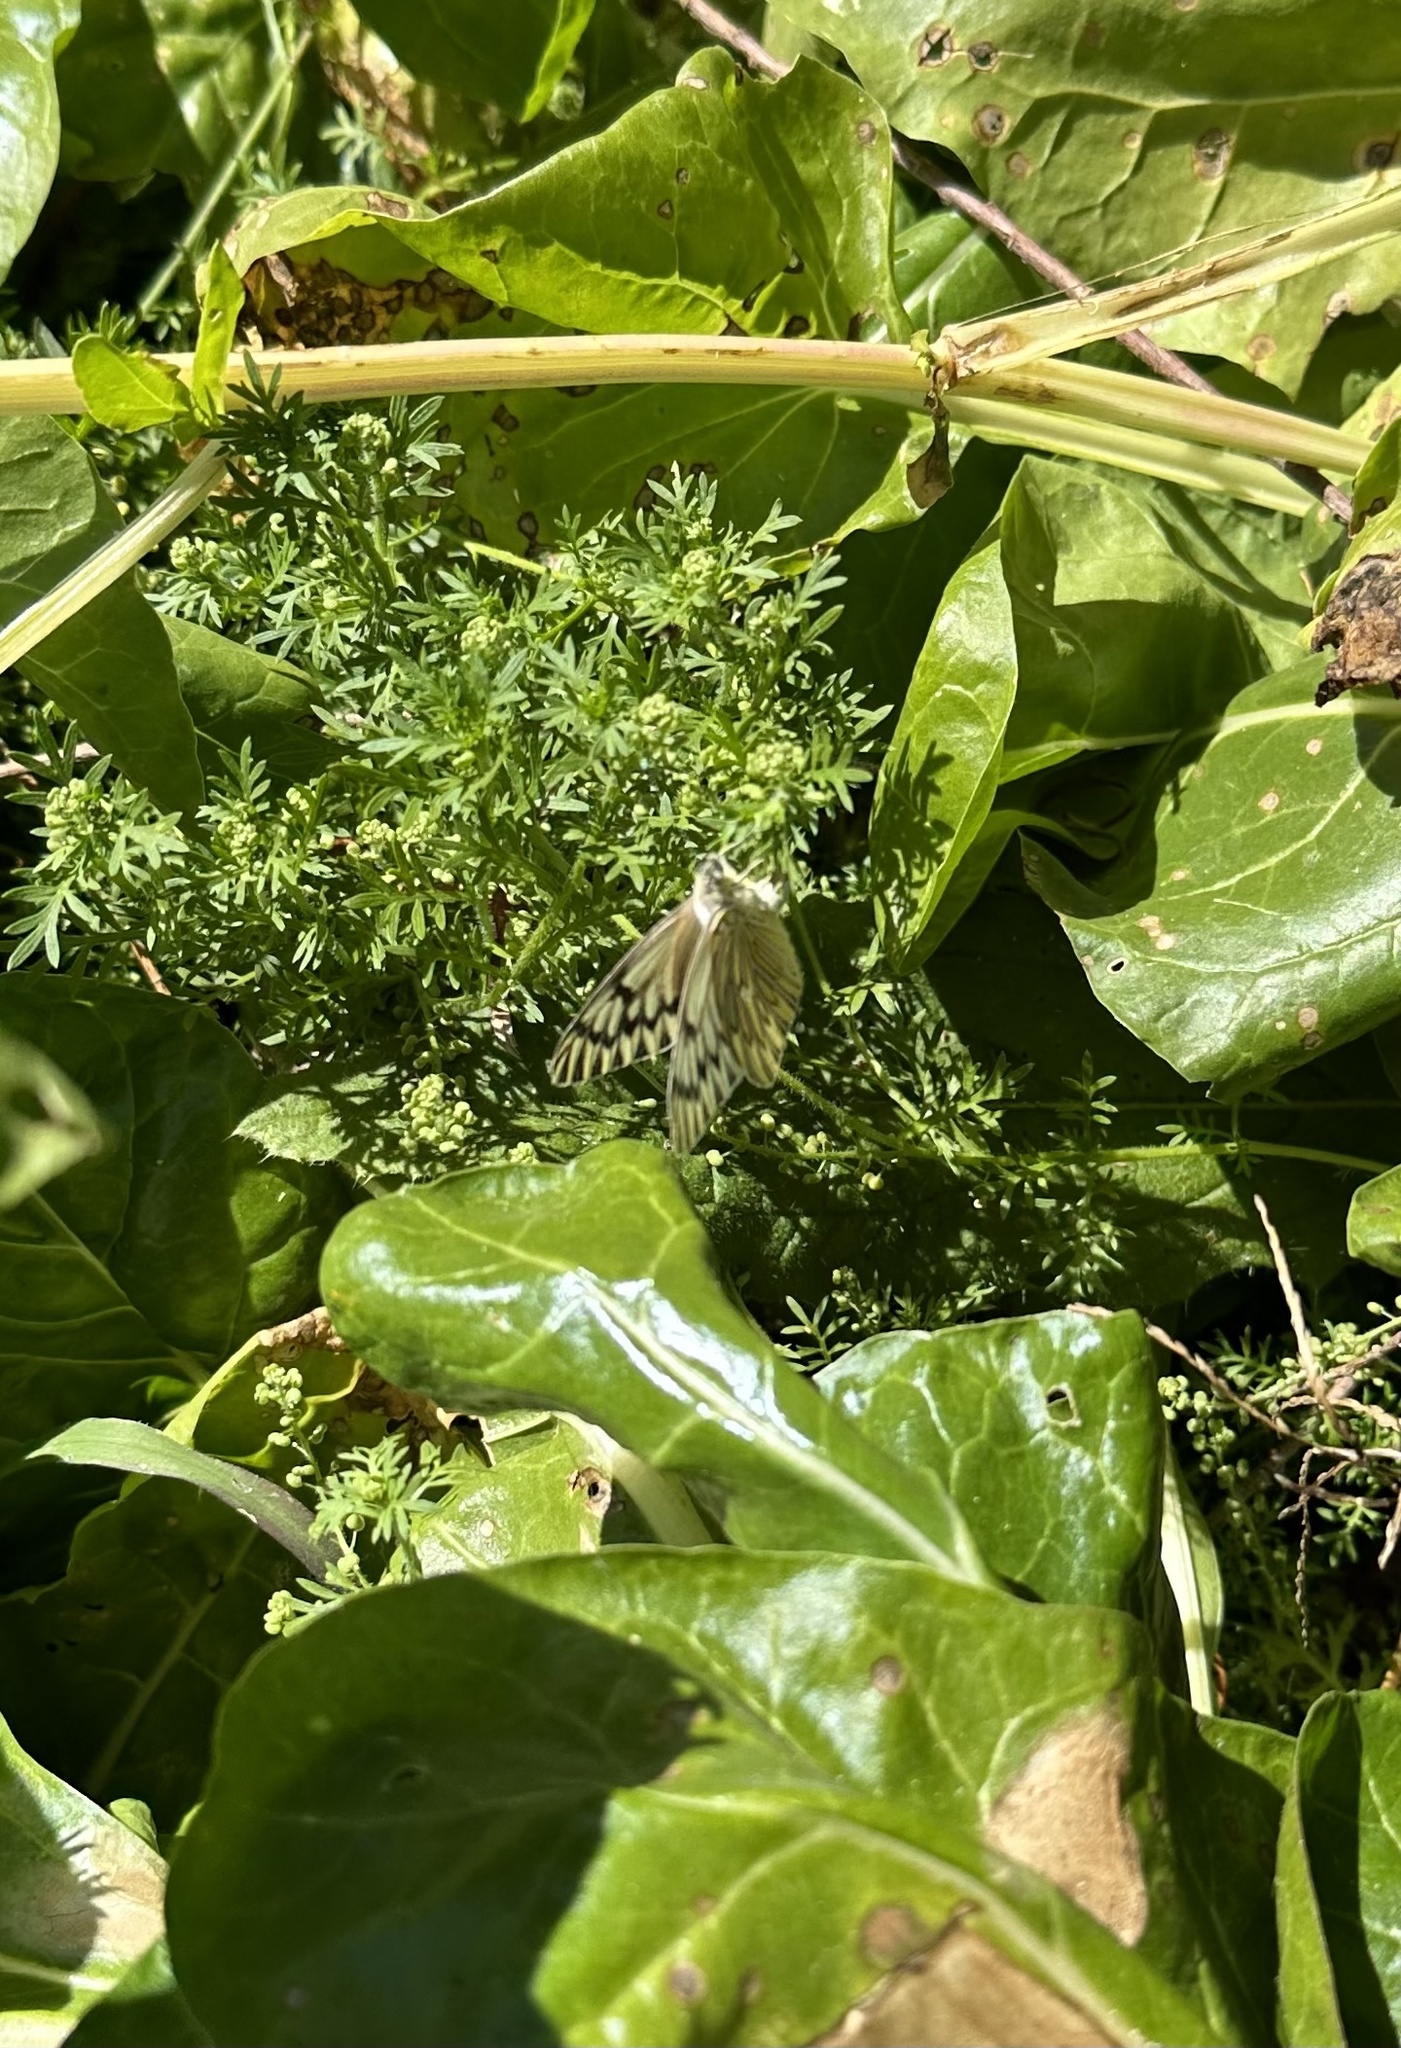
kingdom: Animalia
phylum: Arthropoda
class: Insecta
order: Lepidoptera
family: Pieridae
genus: Tatochila
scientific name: Tatochila mercedis
